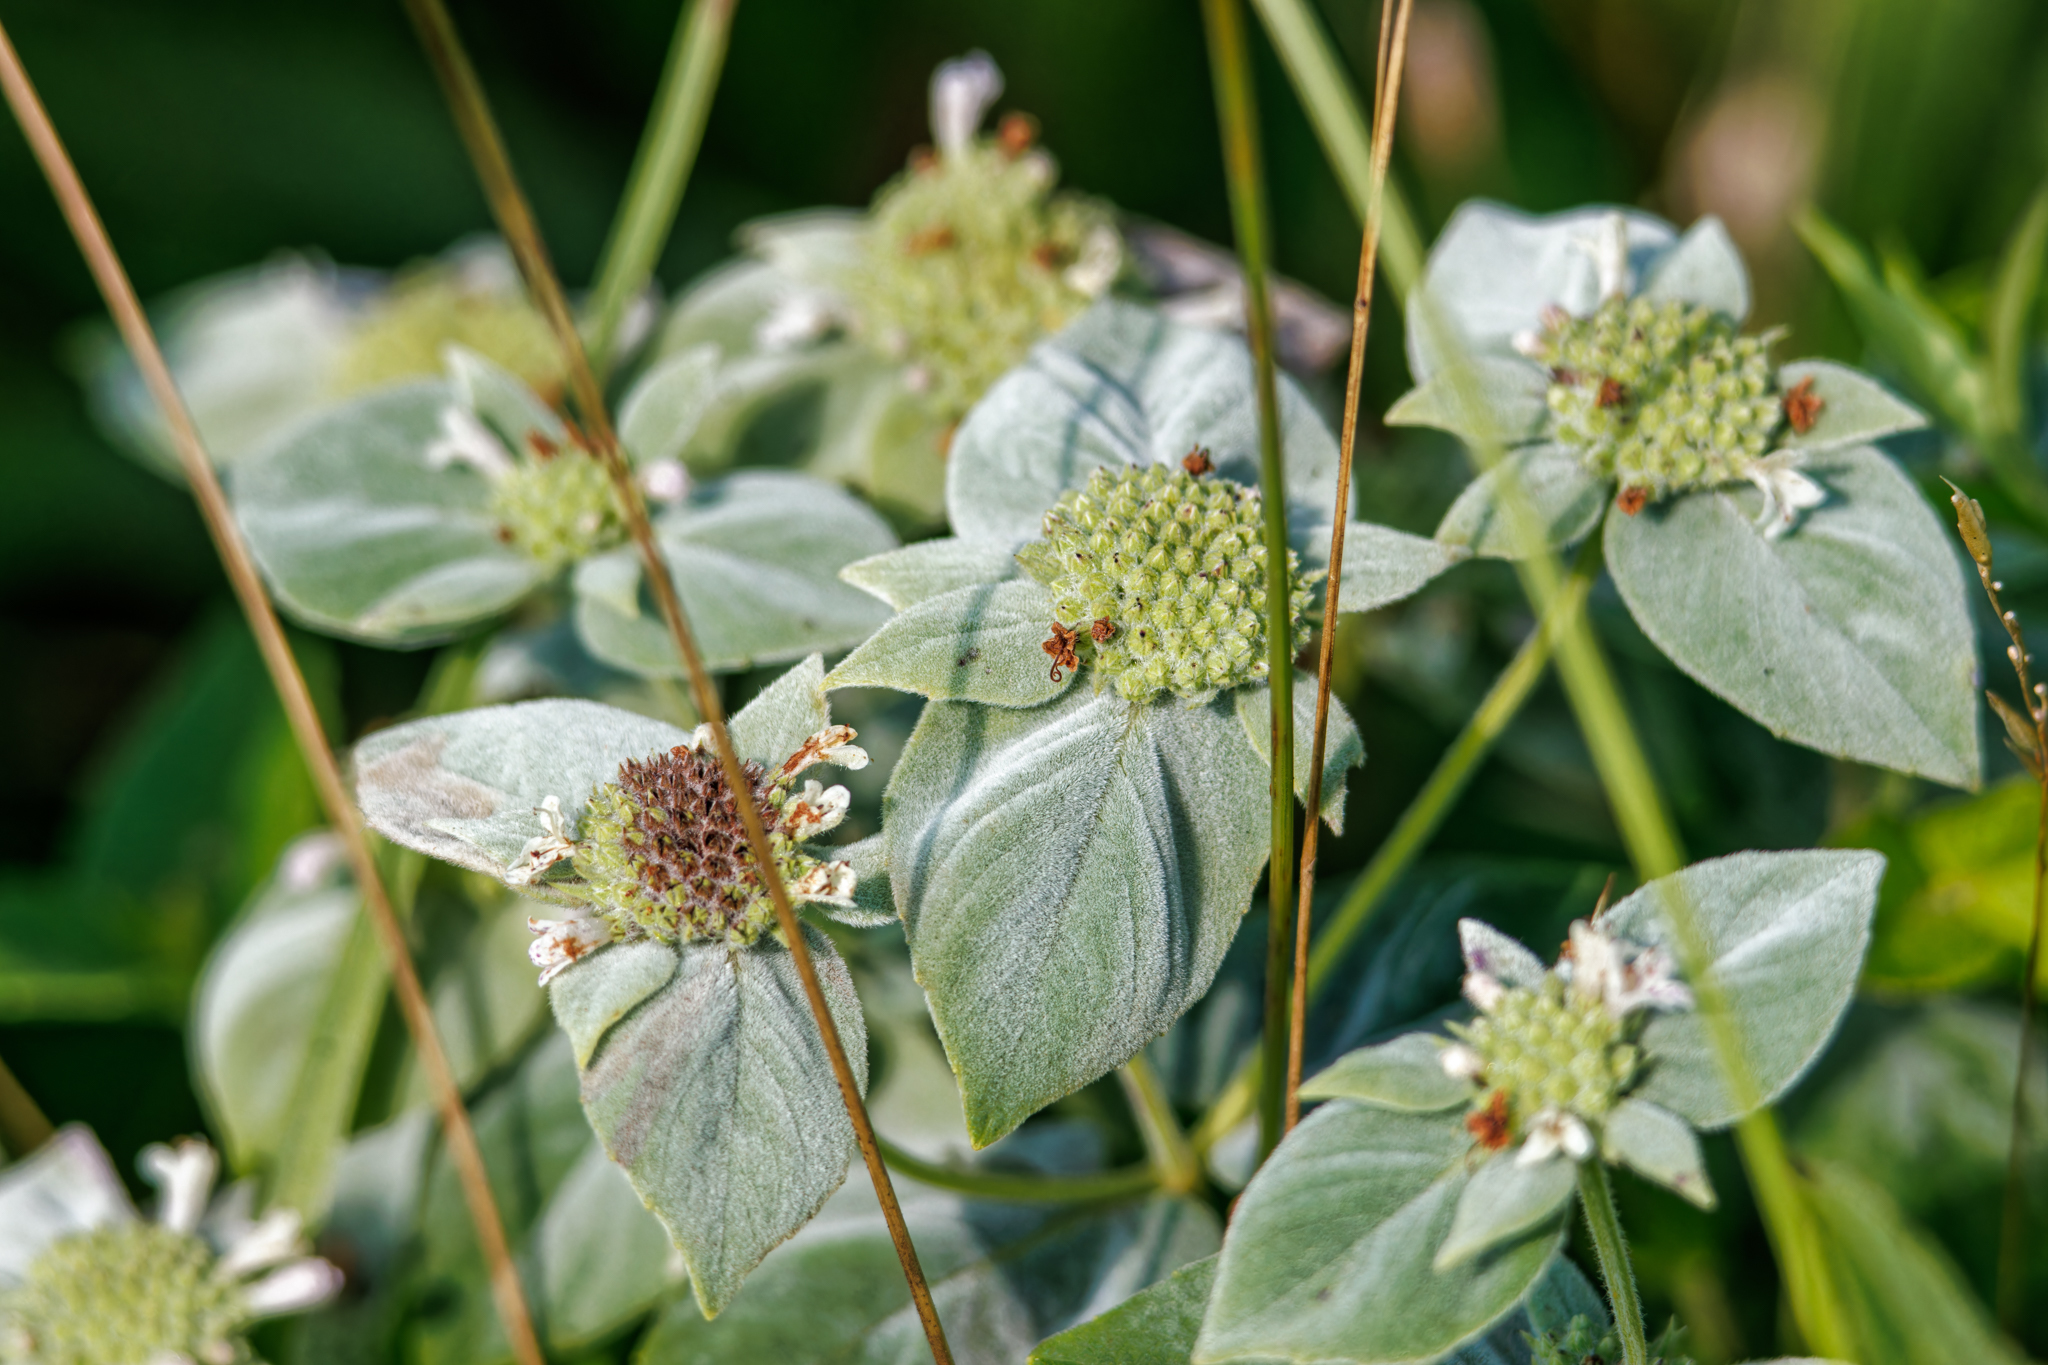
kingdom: Plantae
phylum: Tracheophyta
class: Magnoliopsida
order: Lamiales
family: Lamiaceae
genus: Pycnanthemum
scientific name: Pycnanthemum muticum
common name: Blunt mountain-mint
